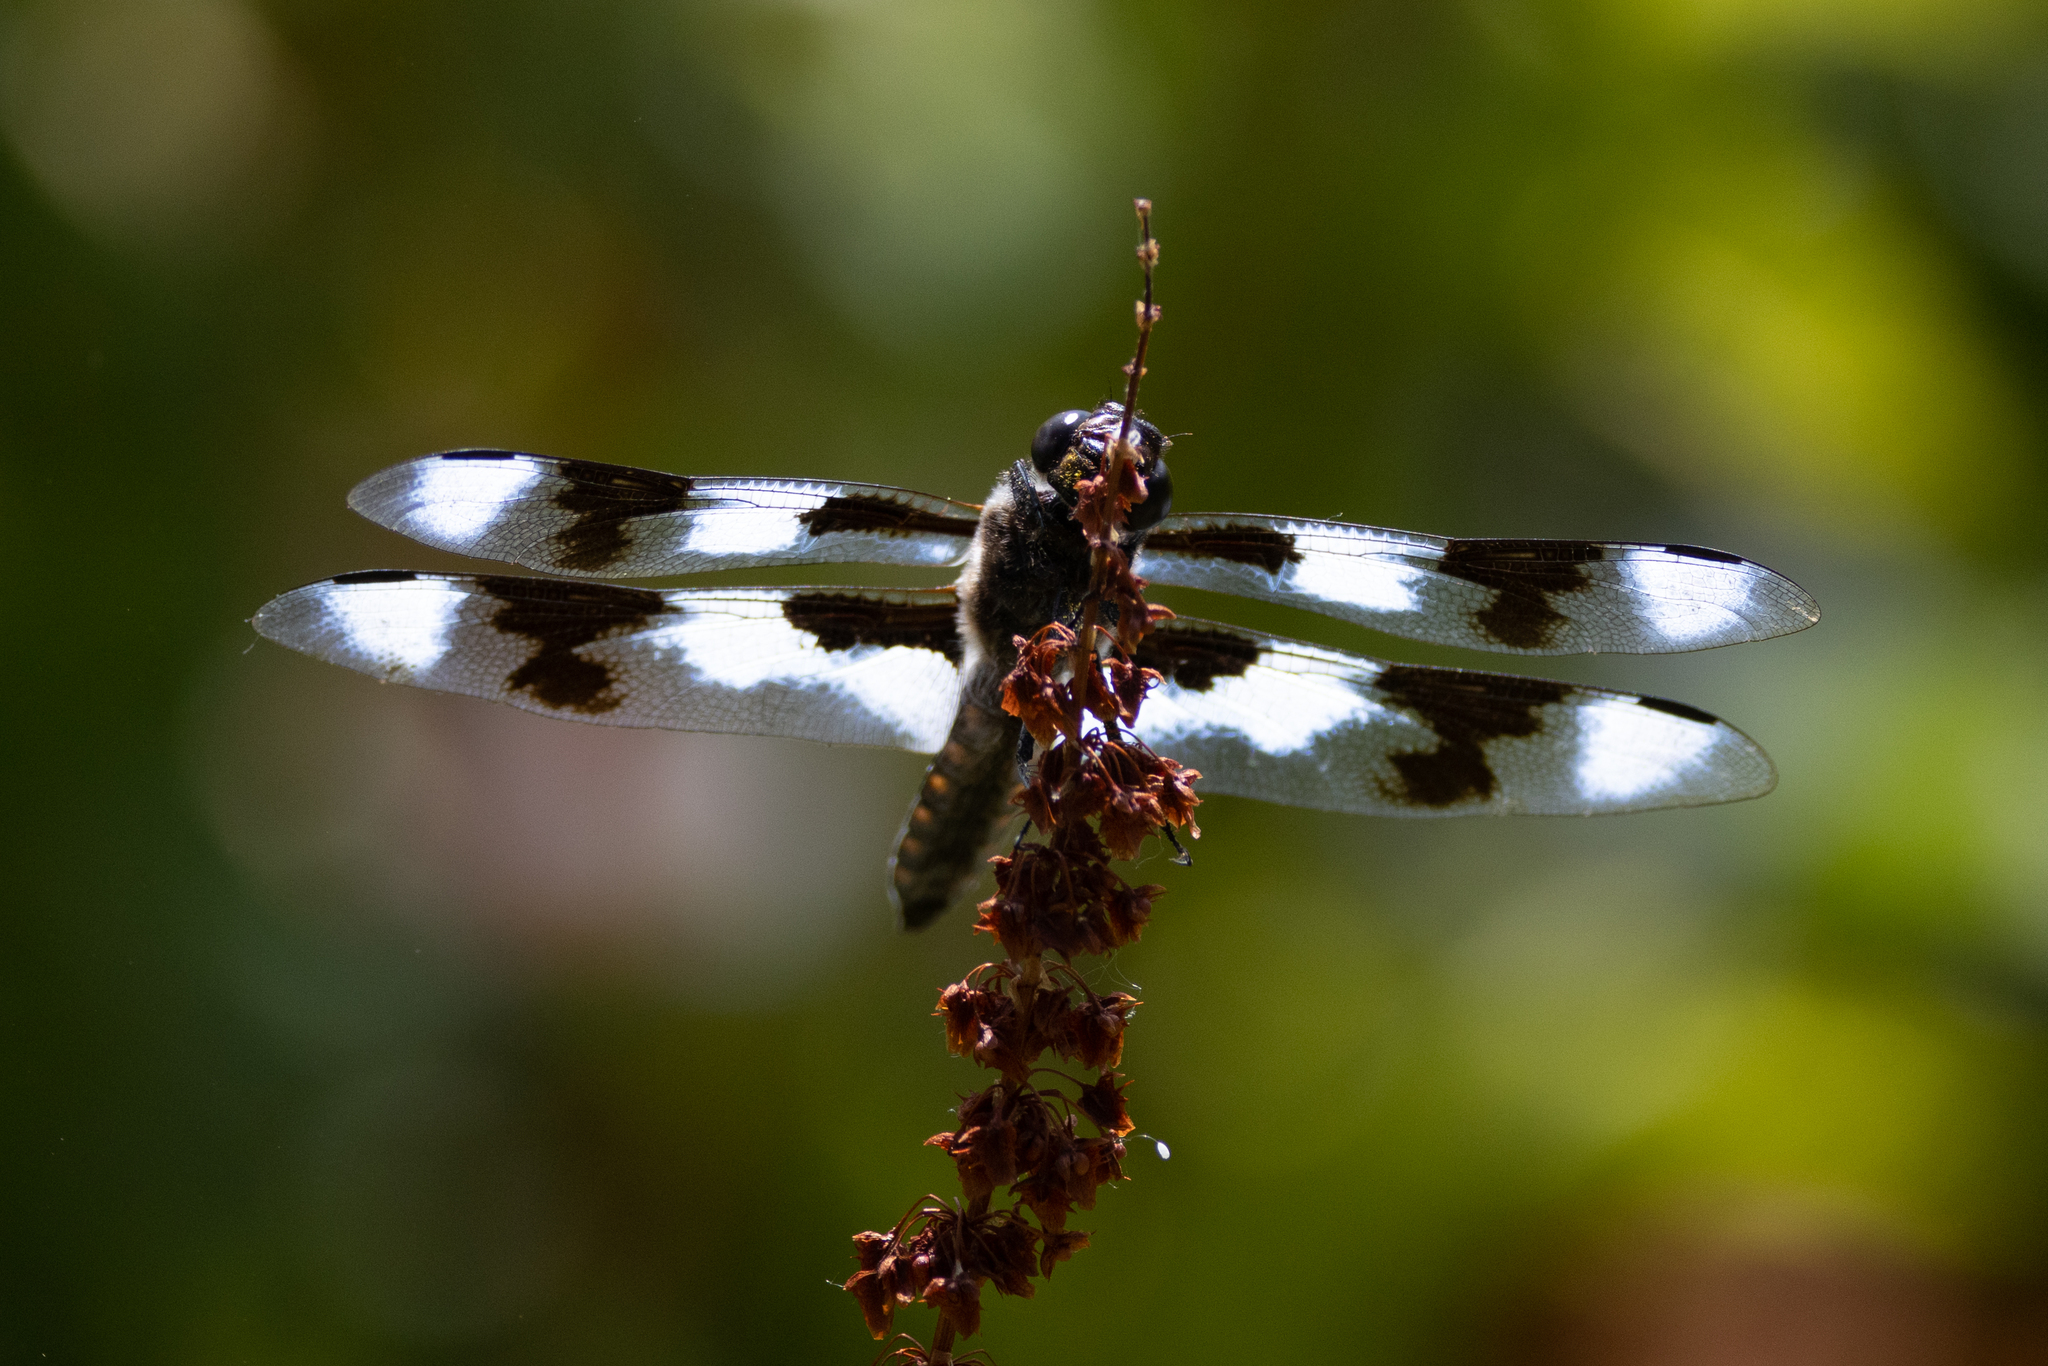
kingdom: Animalia
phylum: Arthropoda
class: Insecta
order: Odonata
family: Libellulidae
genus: Libellula
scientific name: Libellula forensis
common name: Eight-spotted skimmer
